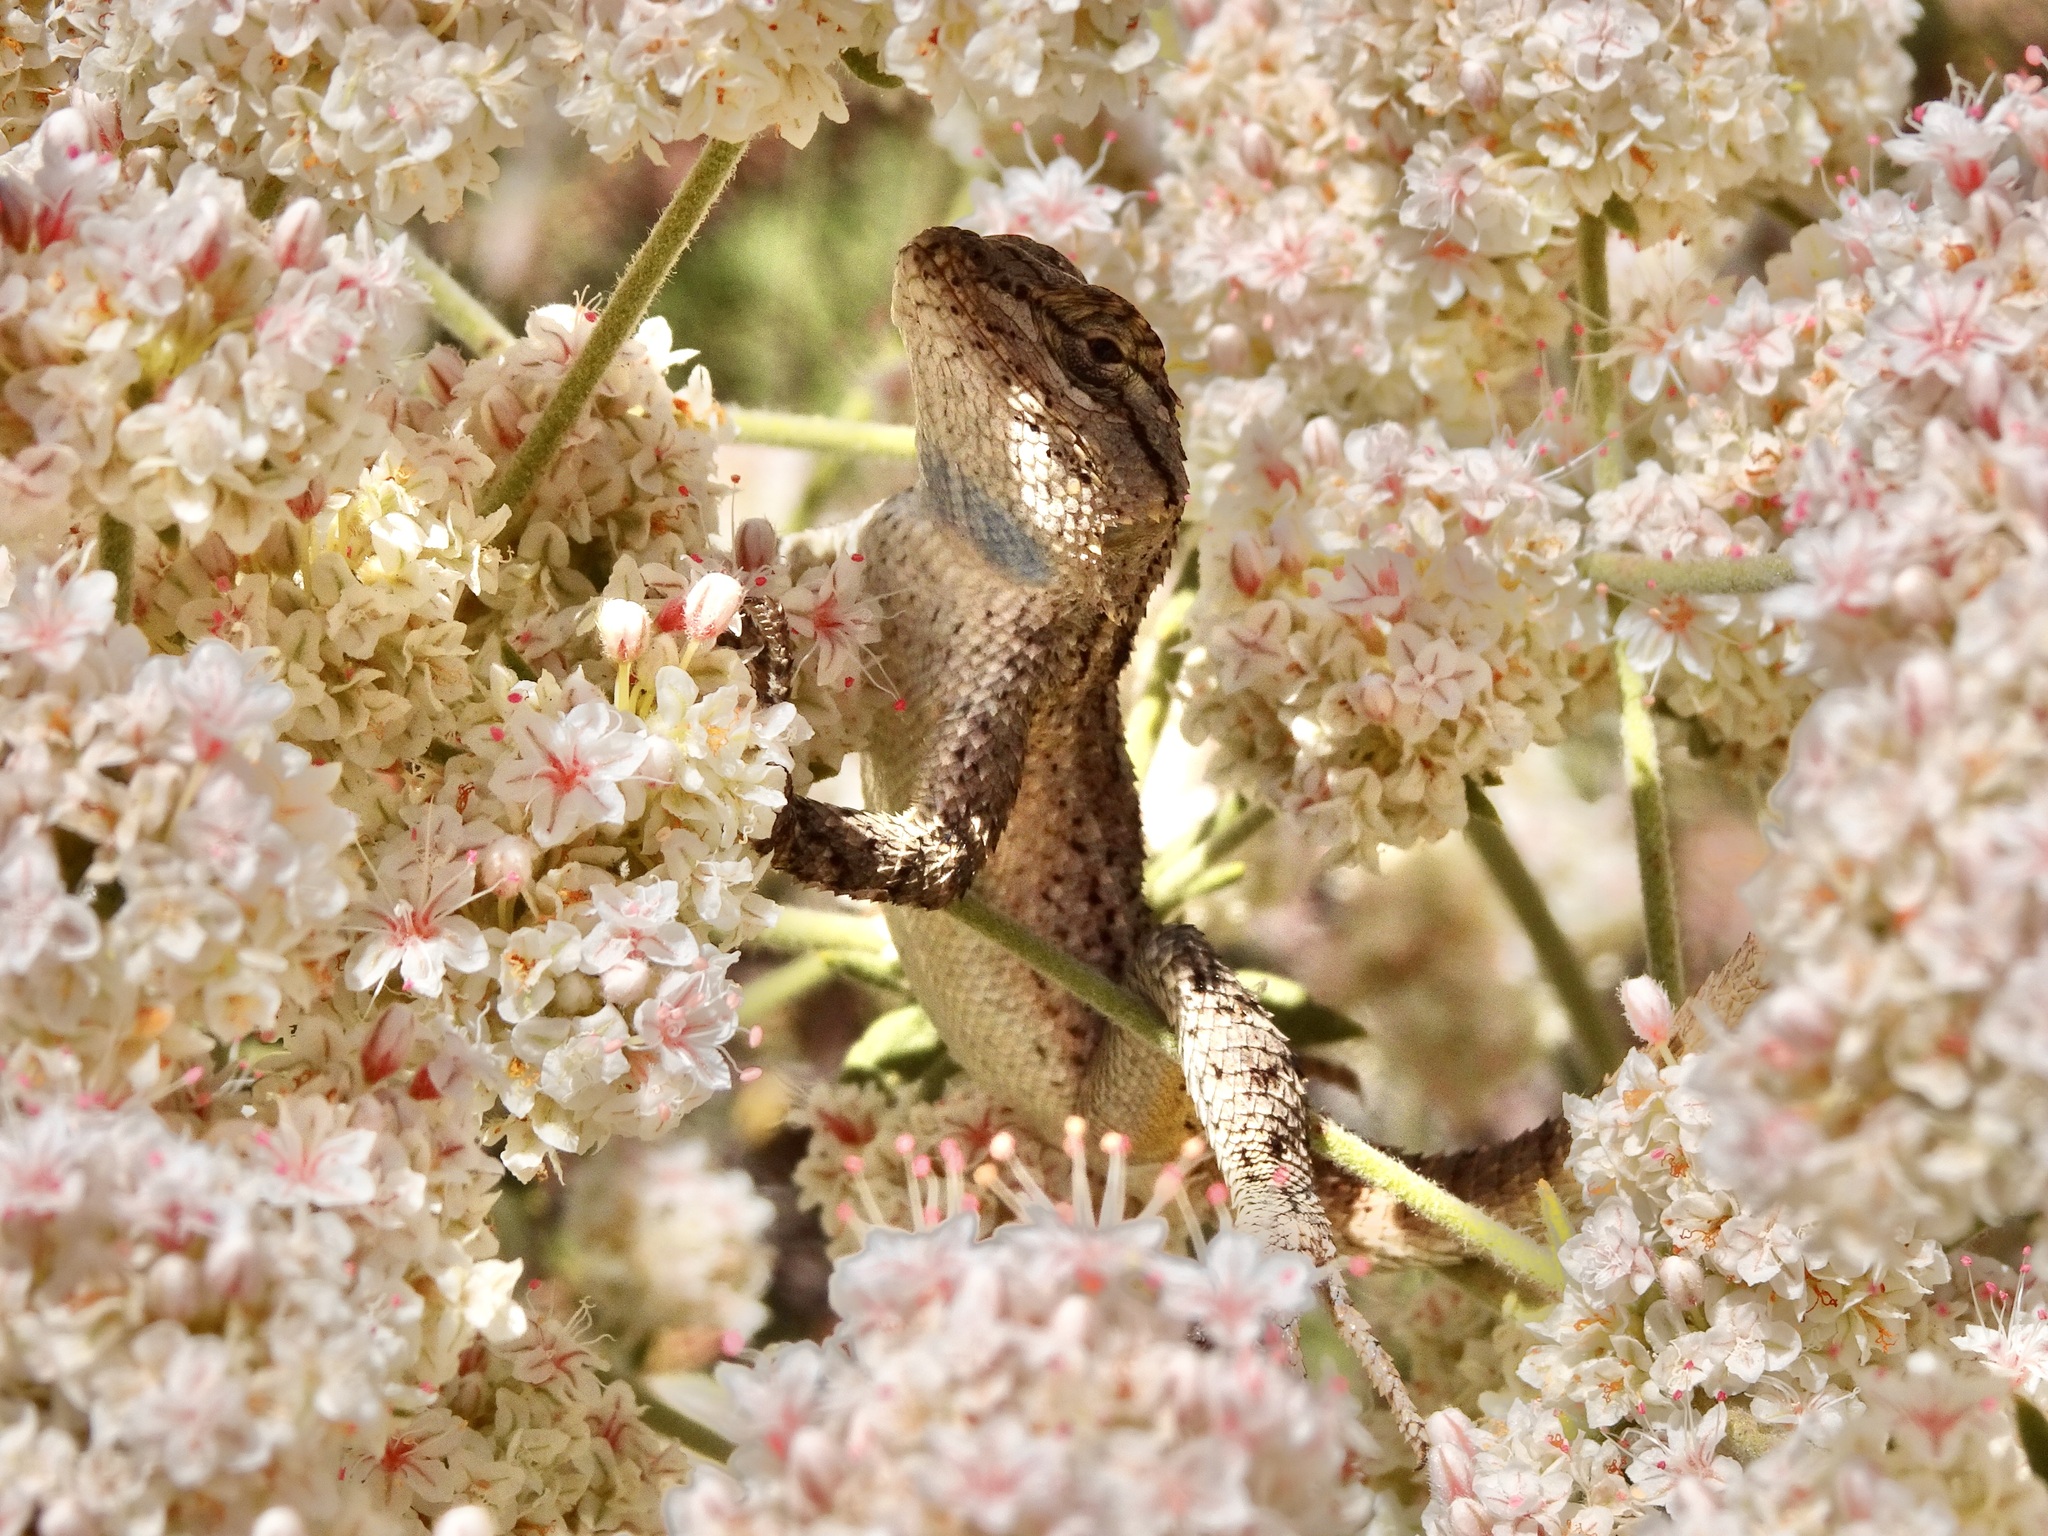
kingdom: Animalia
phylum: Chordata
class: Squamata
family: Phrynosomatidae
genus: Sceloporus
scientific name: Sceloporus occidentalis
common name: Western fence lizard
